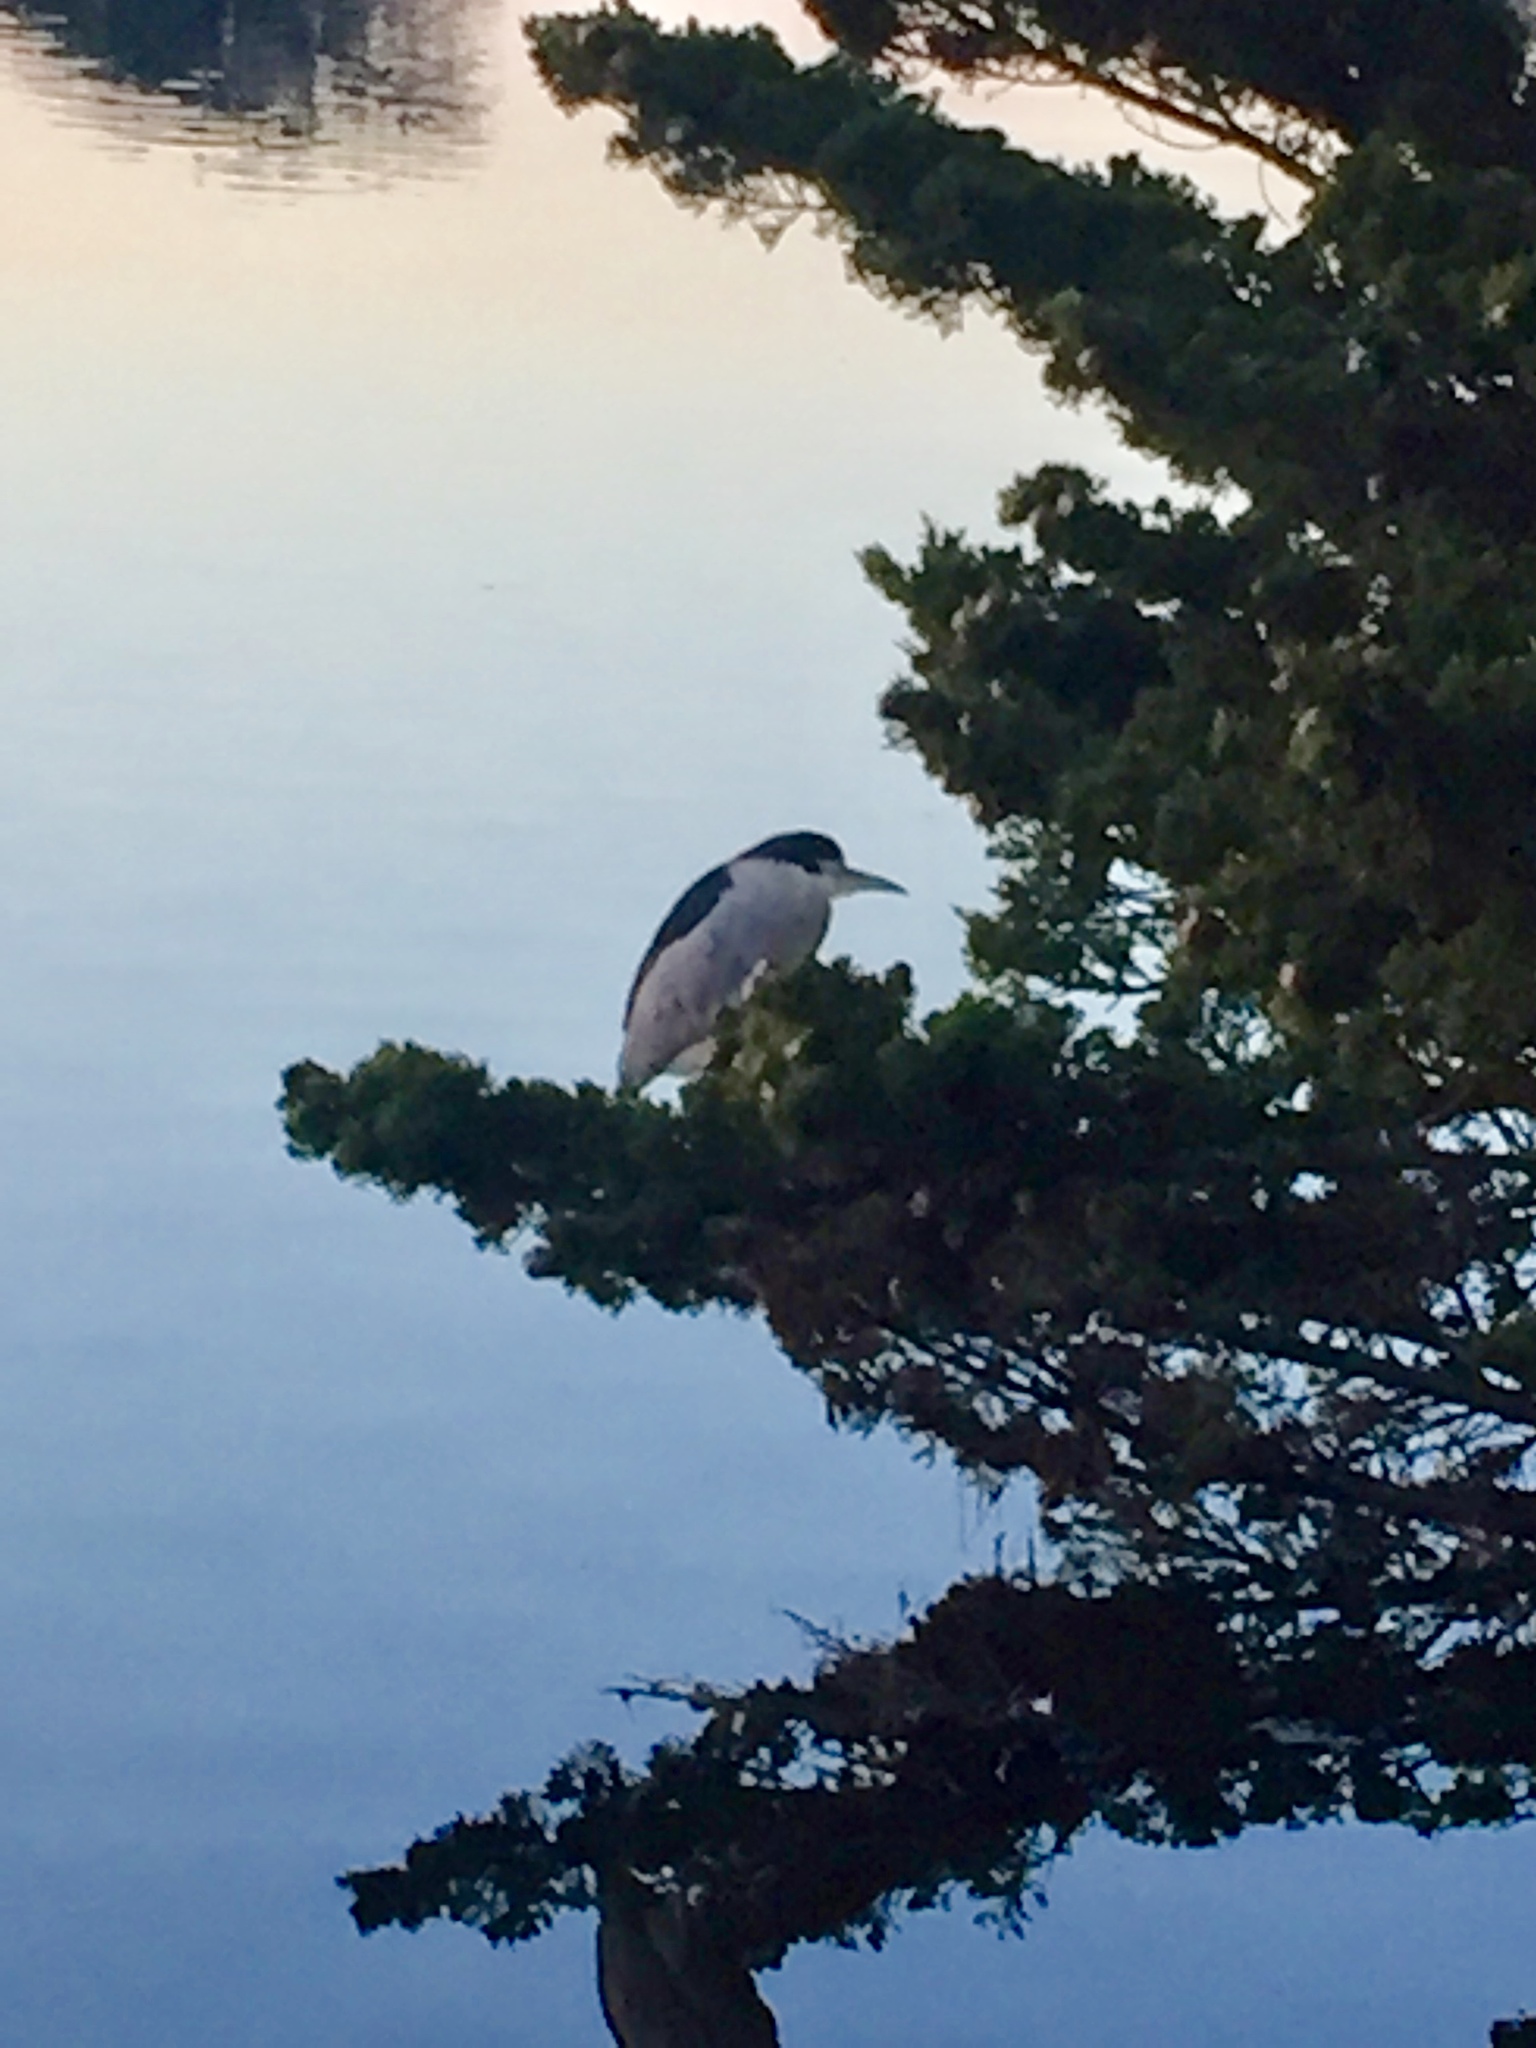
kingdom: Animalia
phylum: Chordata
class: Aves
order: Pelecaniformes
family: Ardeidae
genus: Nycticorax
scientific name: Nycticorax nycticorax
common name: Black-crowned night heron
